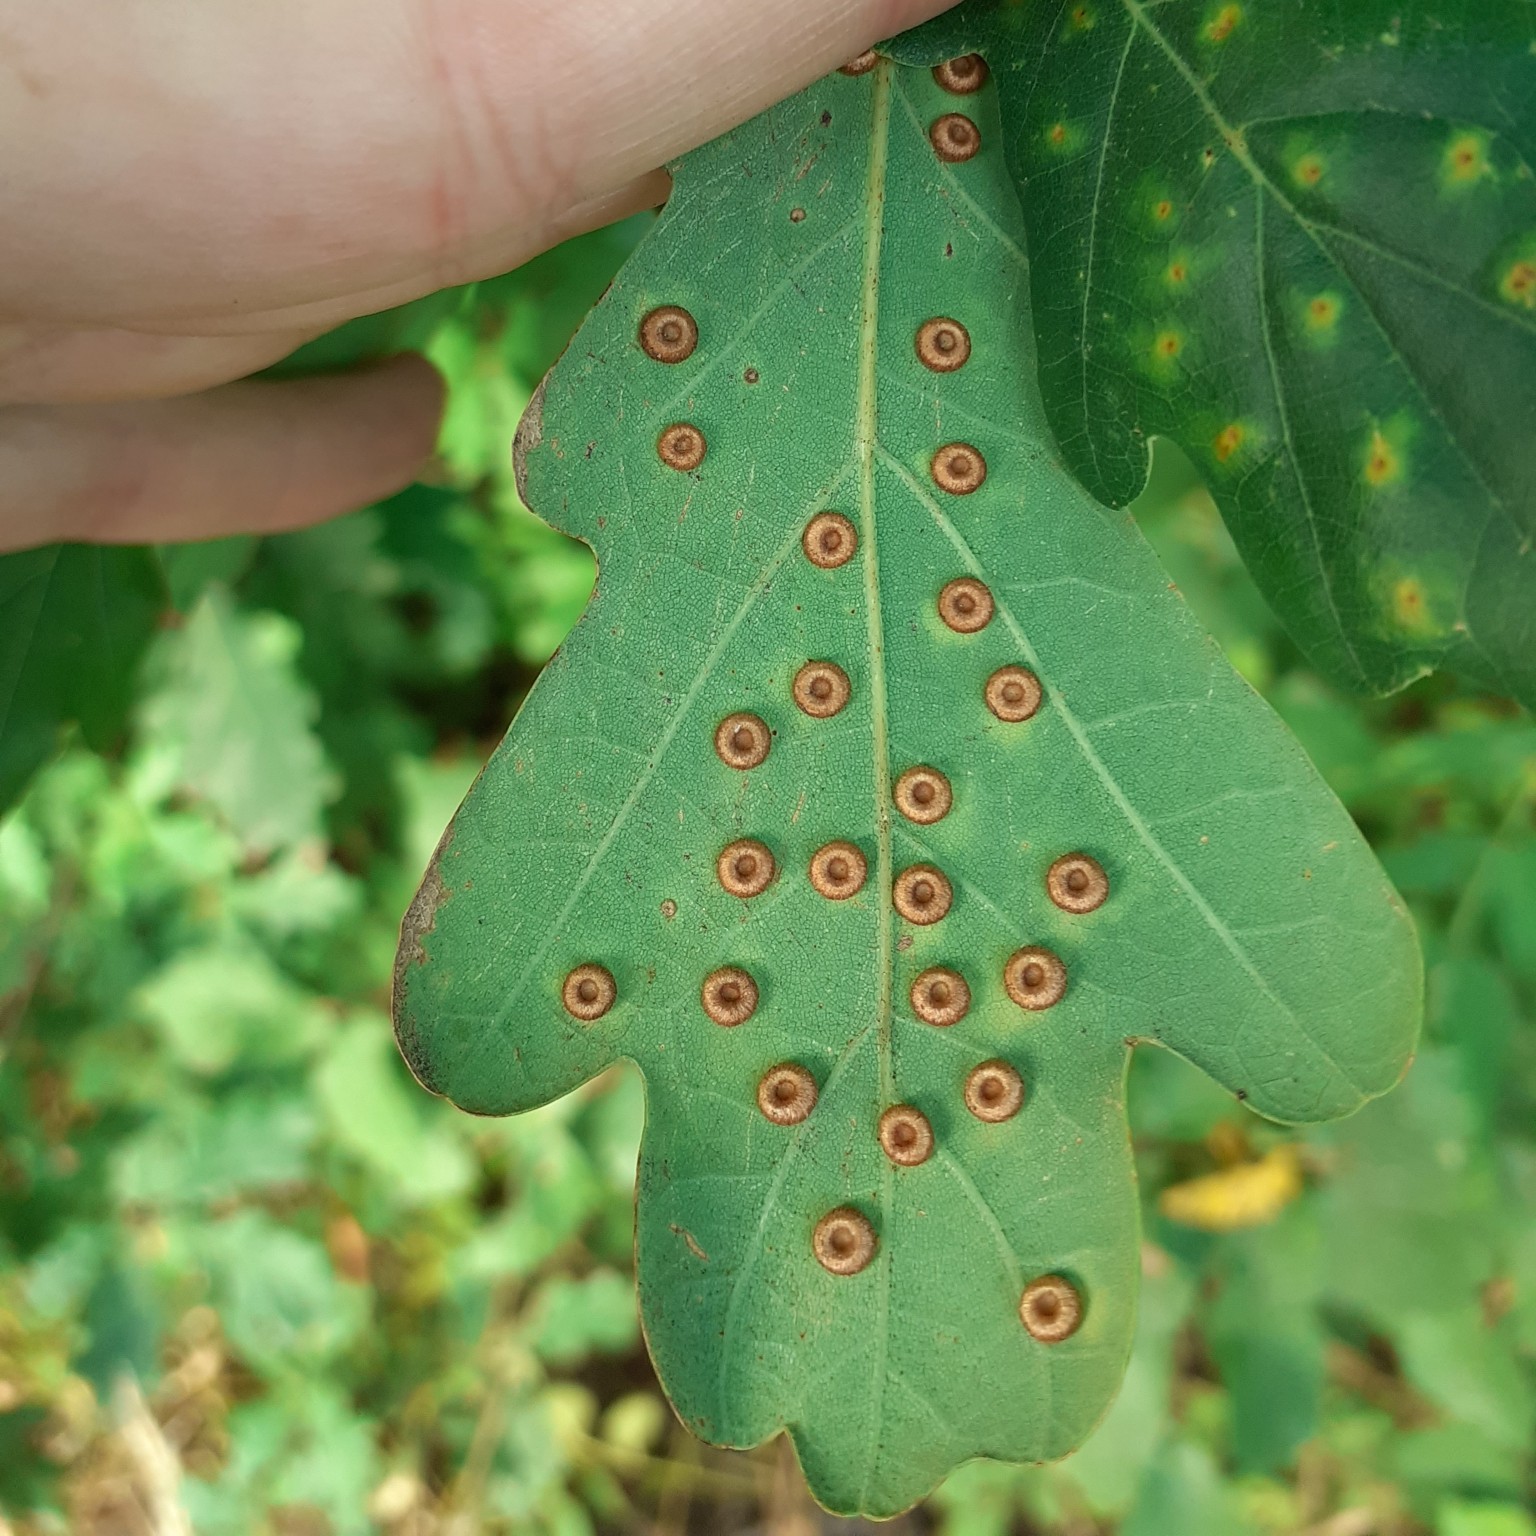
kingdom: Animalia
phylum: Arthropoda
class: Insecta
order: Hymenoptera
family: Cynipidae
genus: Neuroterus
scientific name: Neuroterus numismalis
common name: Silk-button spangle gall
